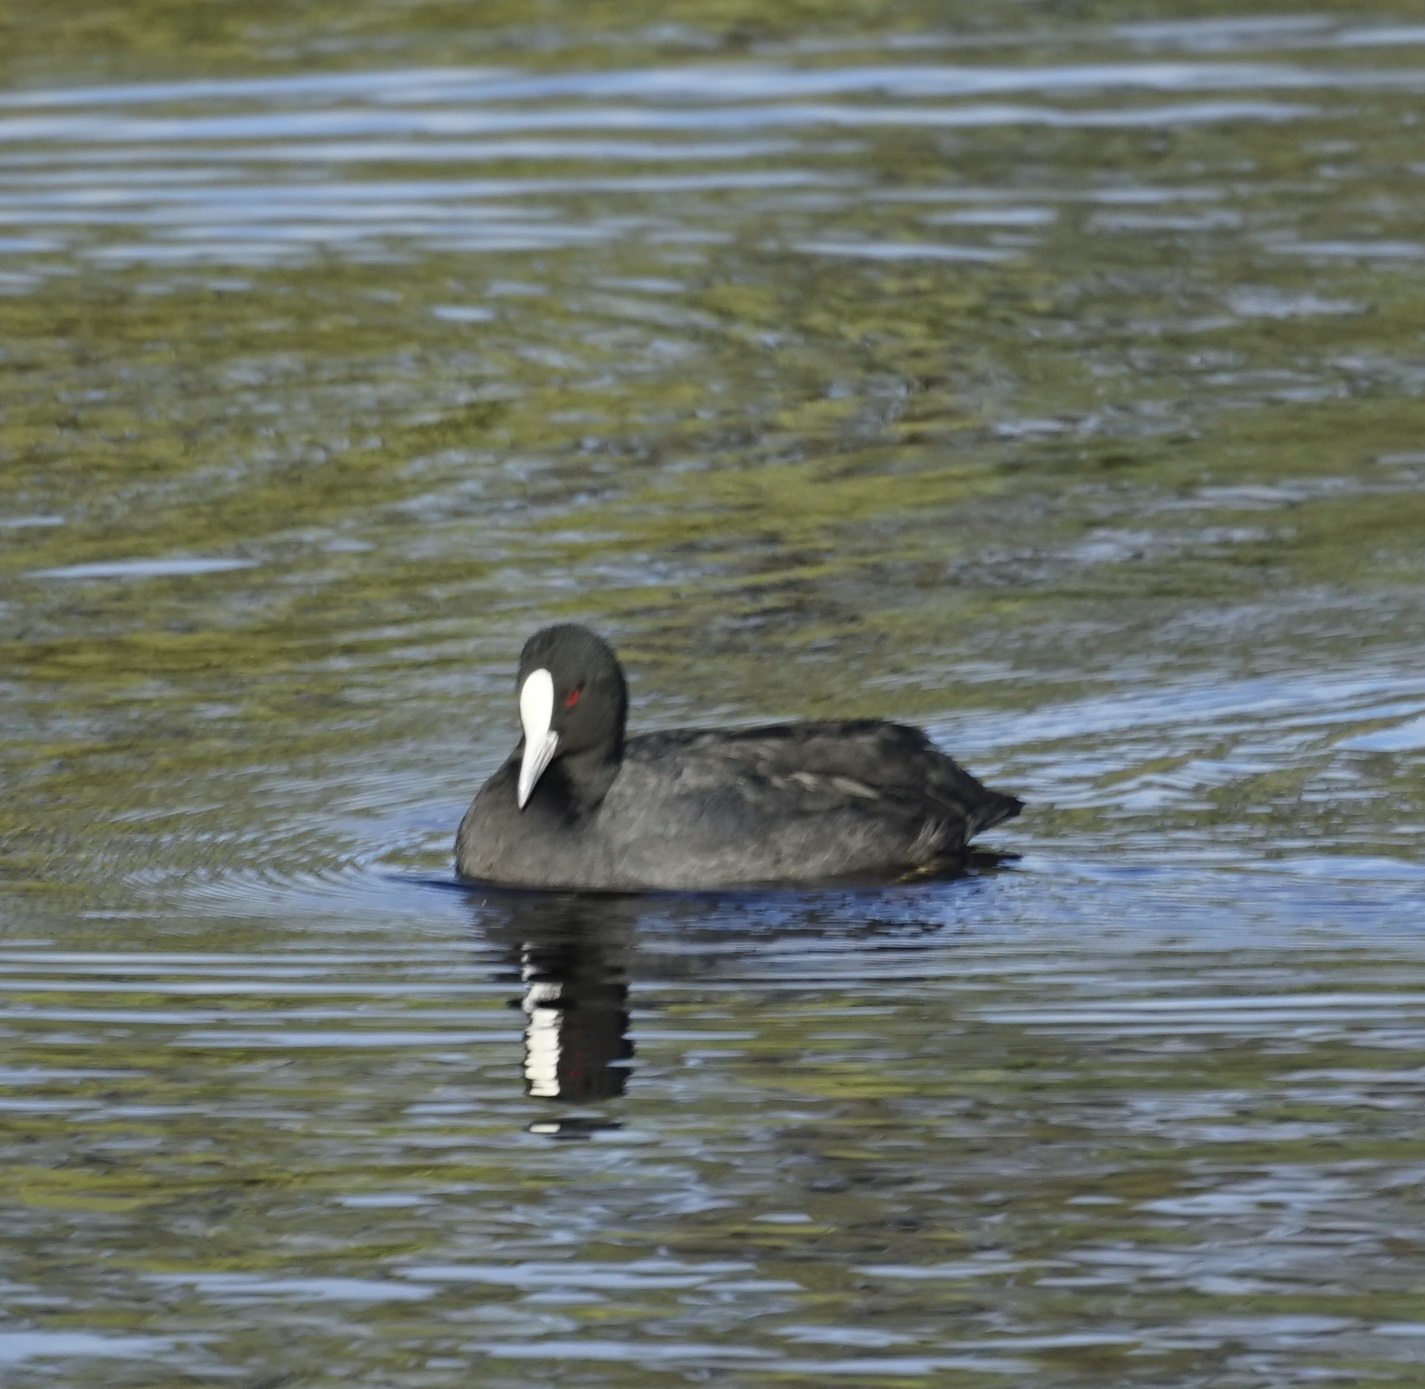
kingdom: Animalia
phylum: Chordata
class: Aves
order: Gruiformes
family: Rallidae
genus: Fulica
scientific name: Fulica atra
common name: Eurasian coot
